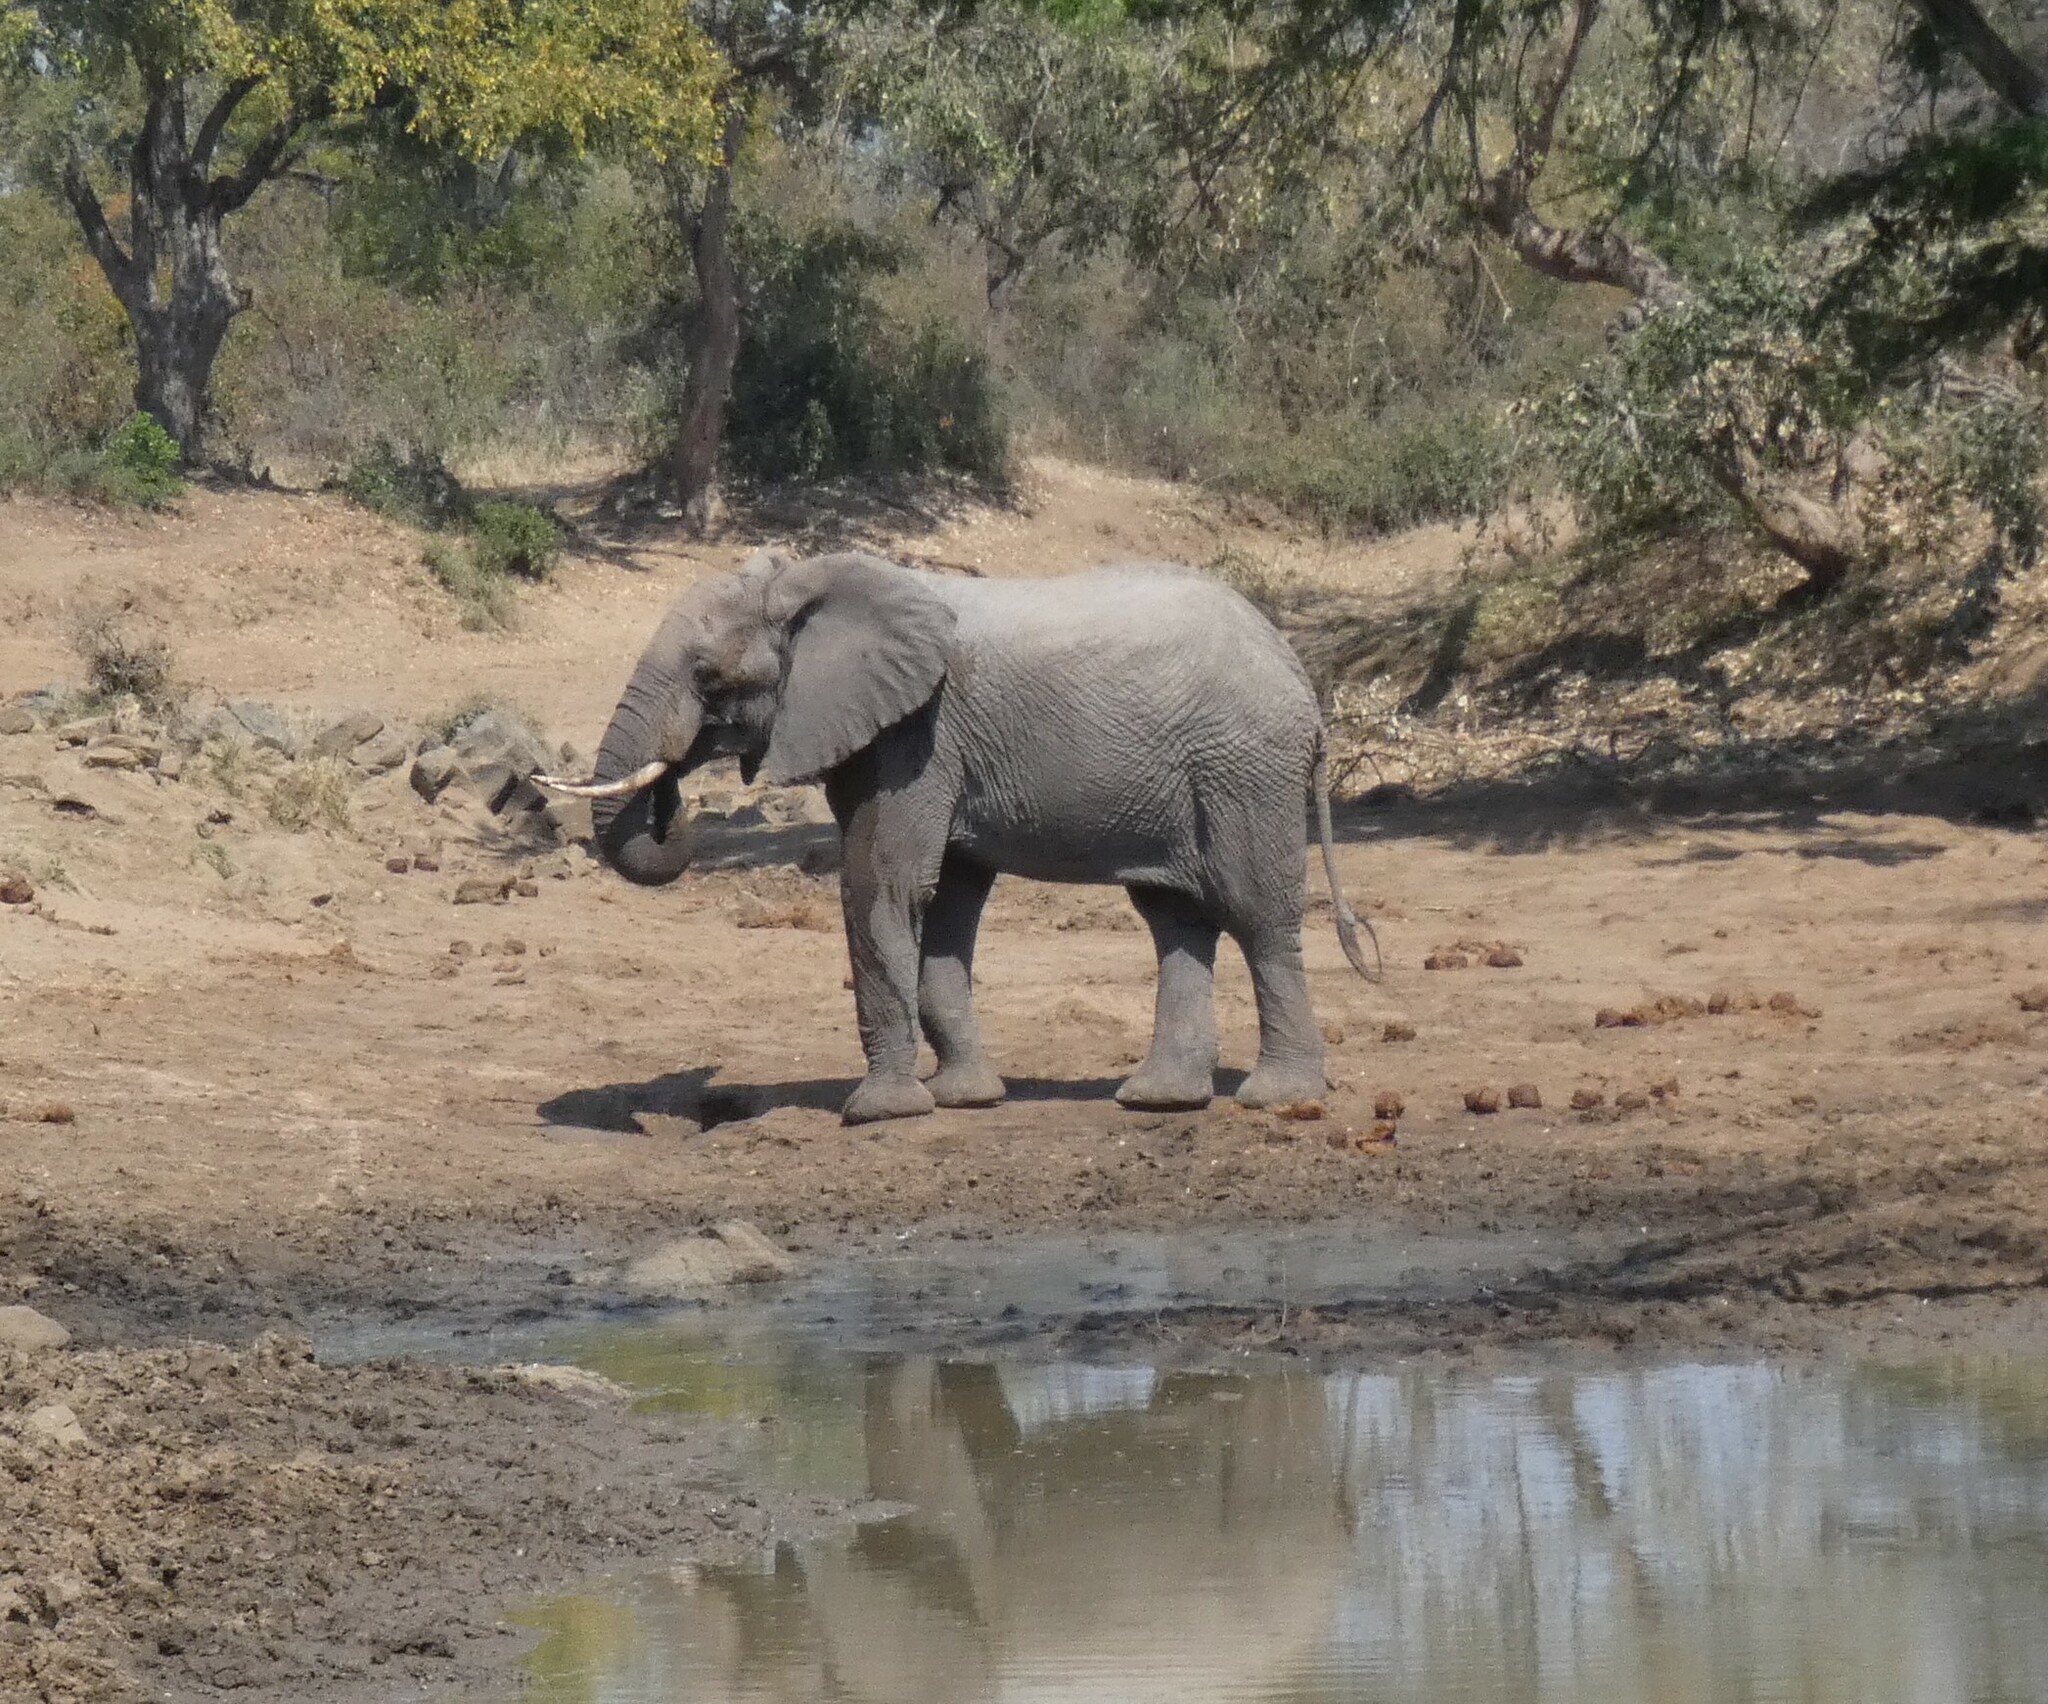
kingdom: Animalia
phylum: Chordata
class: Mammalia
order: Proboscidea
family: Elephantidae
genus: Loxodonta
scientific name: Loxodonta africana
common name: African elephant
